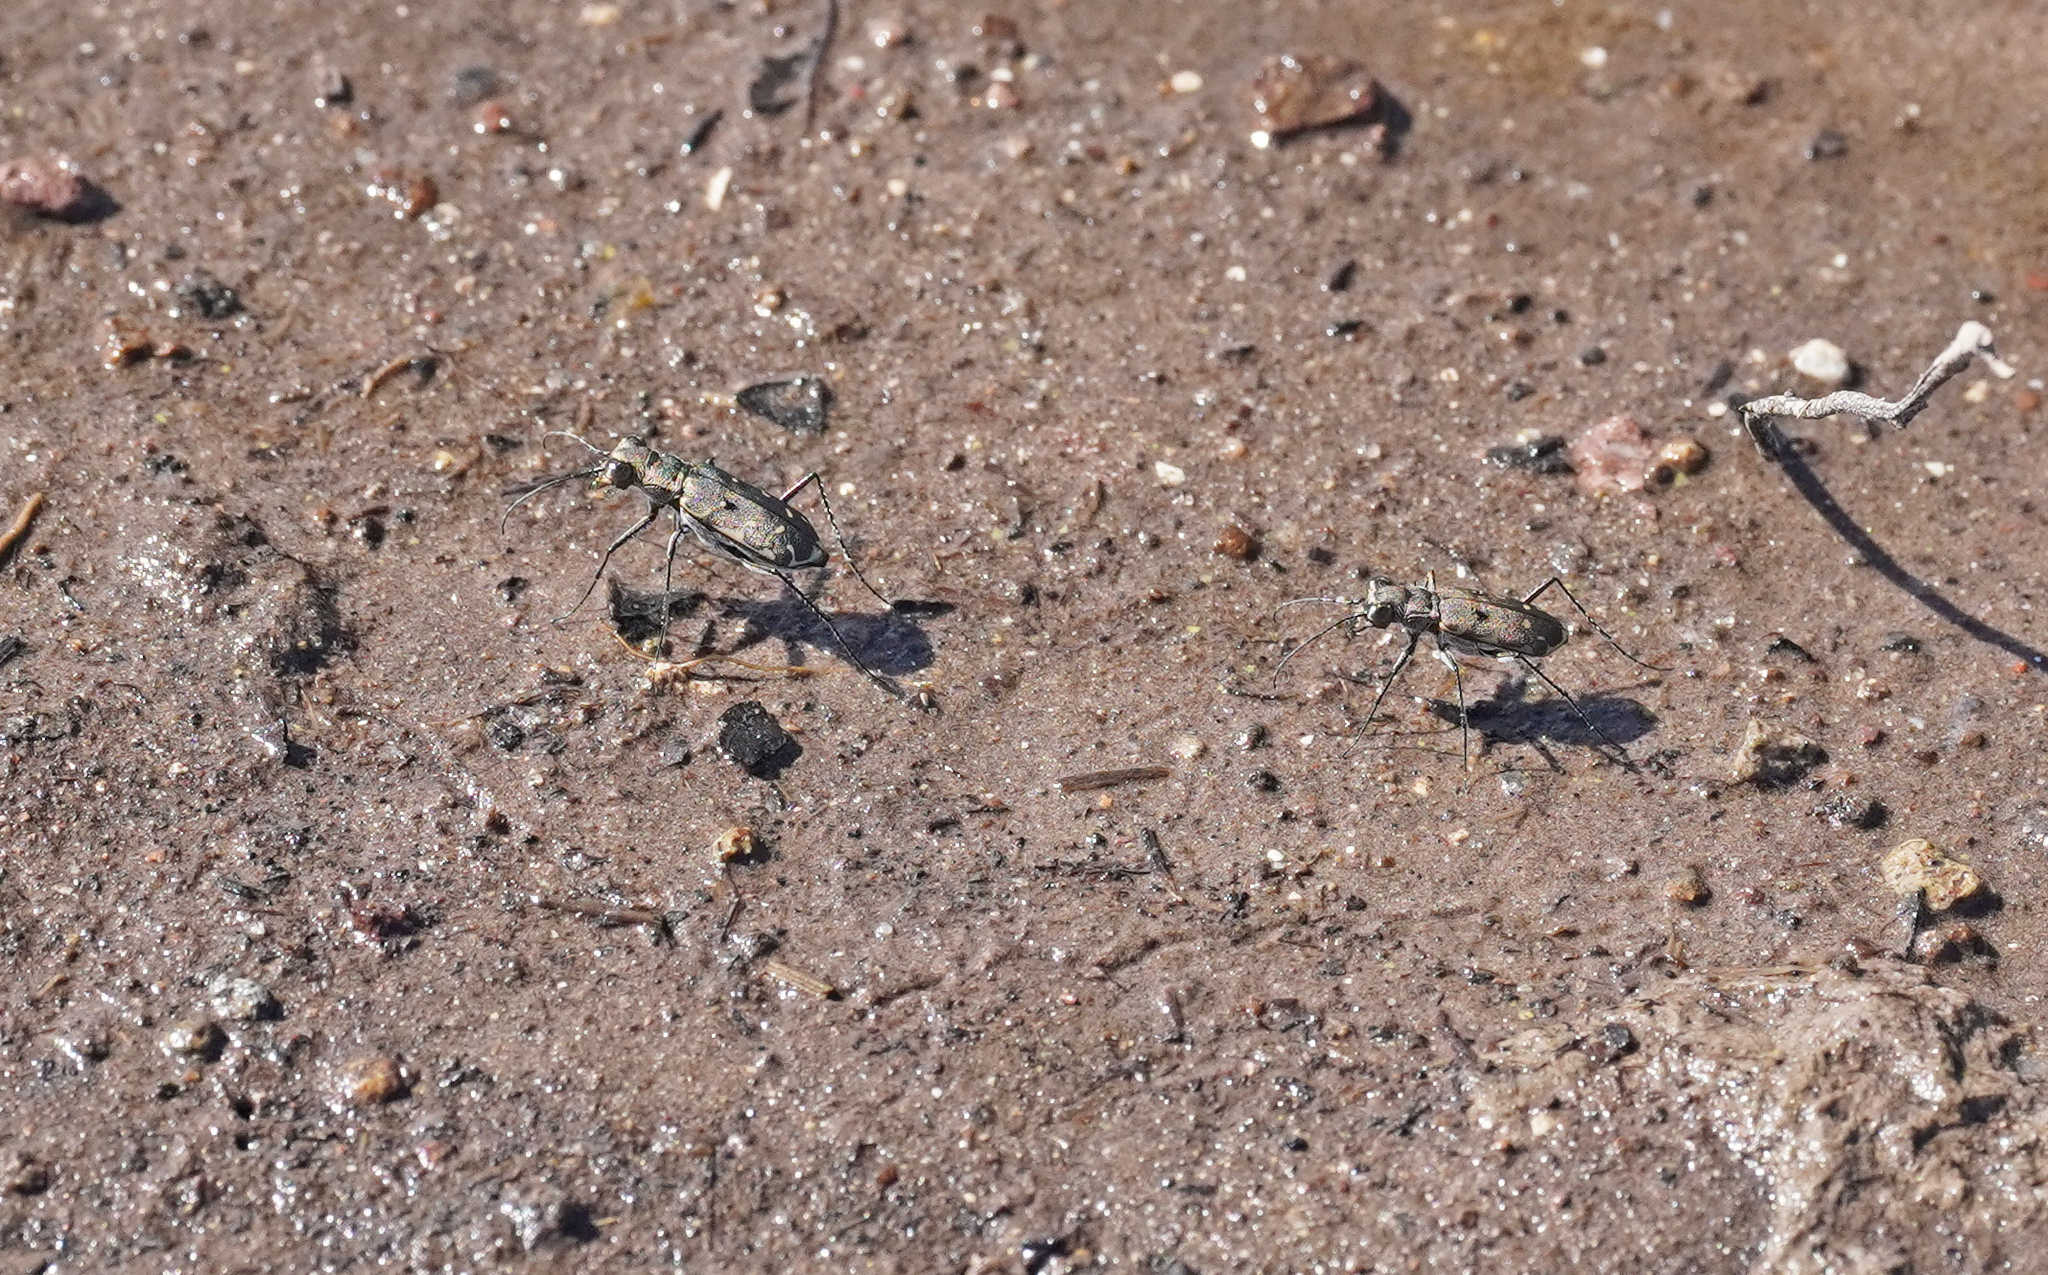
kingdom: Animalia
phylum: Arthropoda
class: Insecta
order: Coleoptera
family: Carabidae
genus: Myriochila
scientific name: Myriochila melancholica
